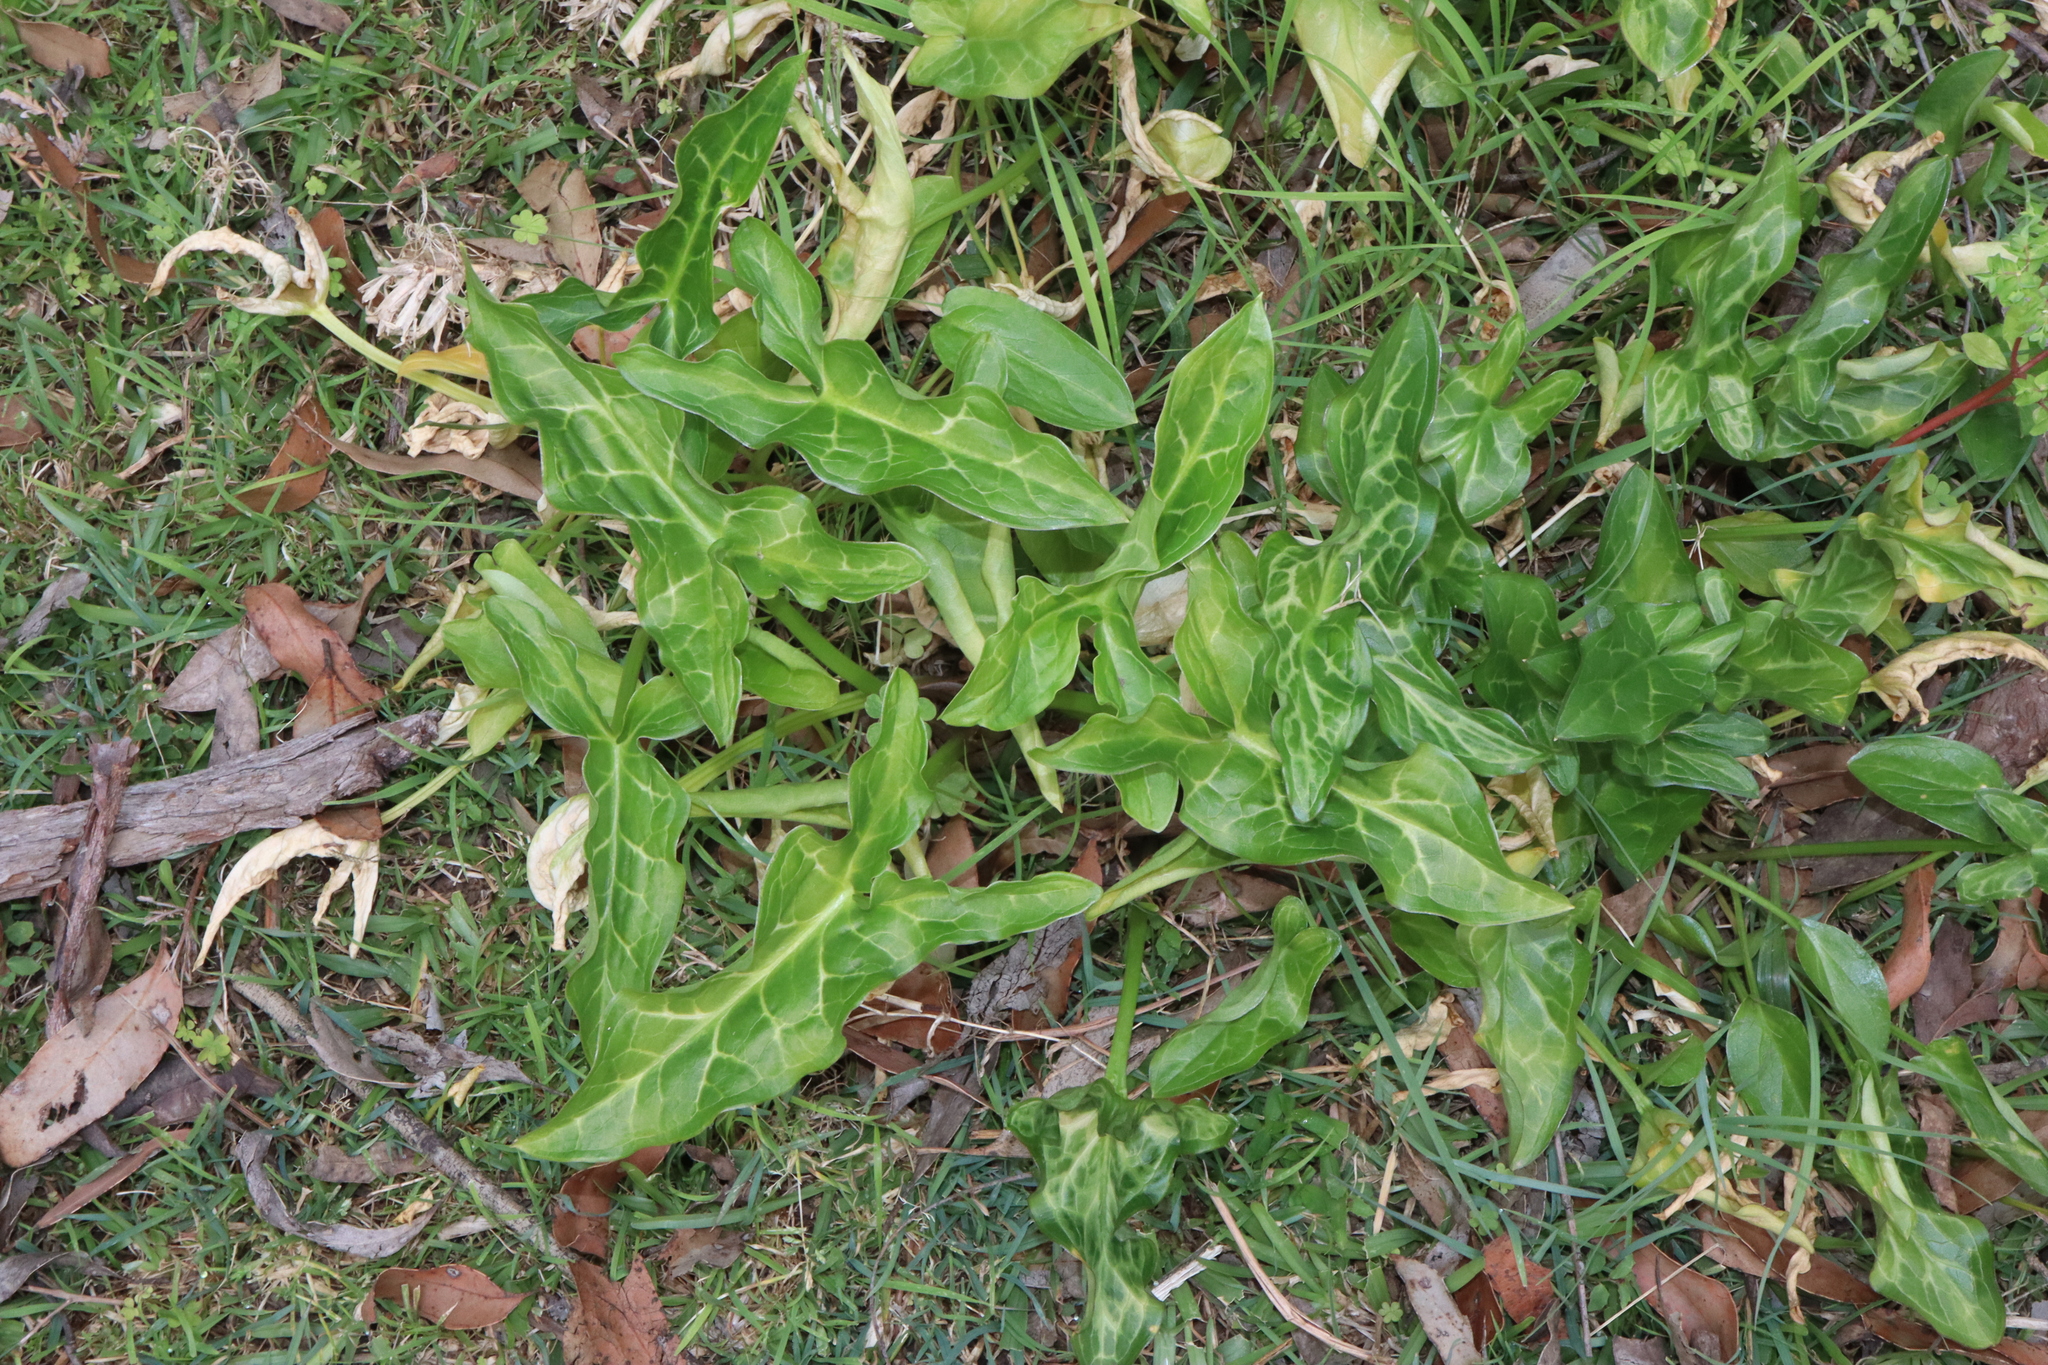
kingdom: Plantae
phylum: Tracheophyta
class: Liliopsida
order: Alismatales
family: Araceae
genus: Arum
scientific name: Arum italicum
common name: Italian lords-and-ladies
